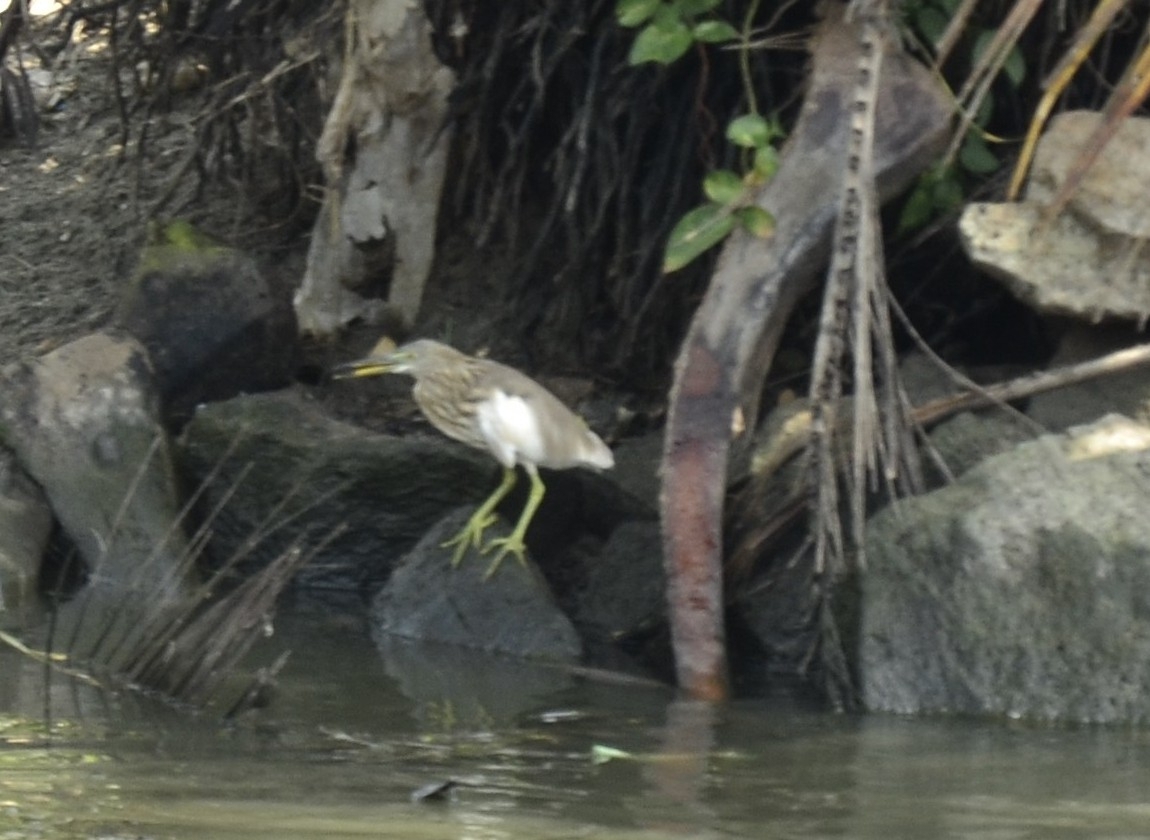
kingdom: Animalia
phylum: Chordata
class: Aves
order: Pelecaniformes
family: Ardeidae
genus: Ardeola
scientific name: Ardeola grayii
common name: Indian pond heron
